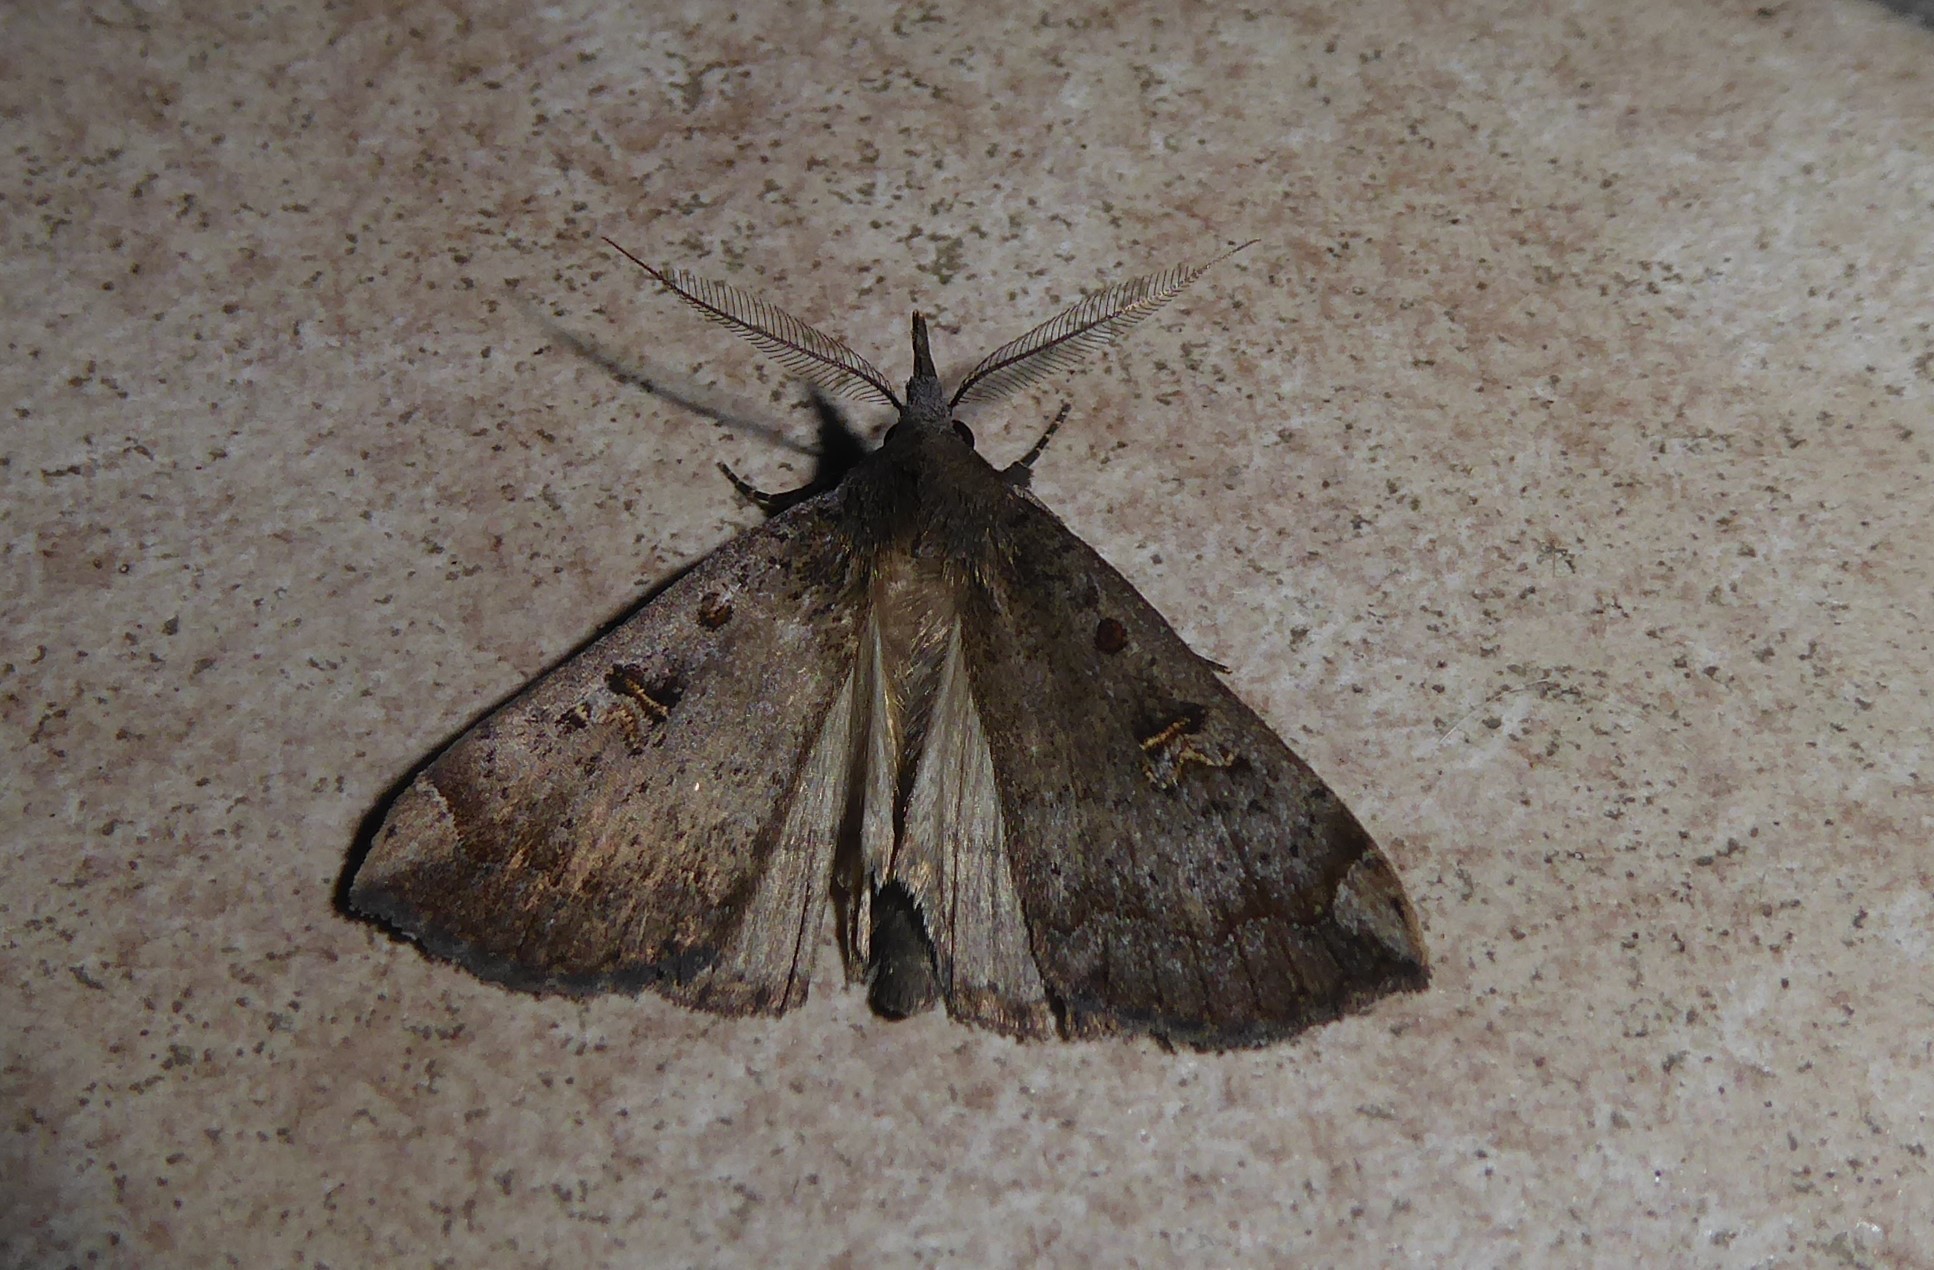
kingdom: Animalia
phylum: Arthropoda
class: Insecta
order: Lepidoptera
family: Erebidae
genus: Rhapsa
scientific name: Rhapsa scotosialis
